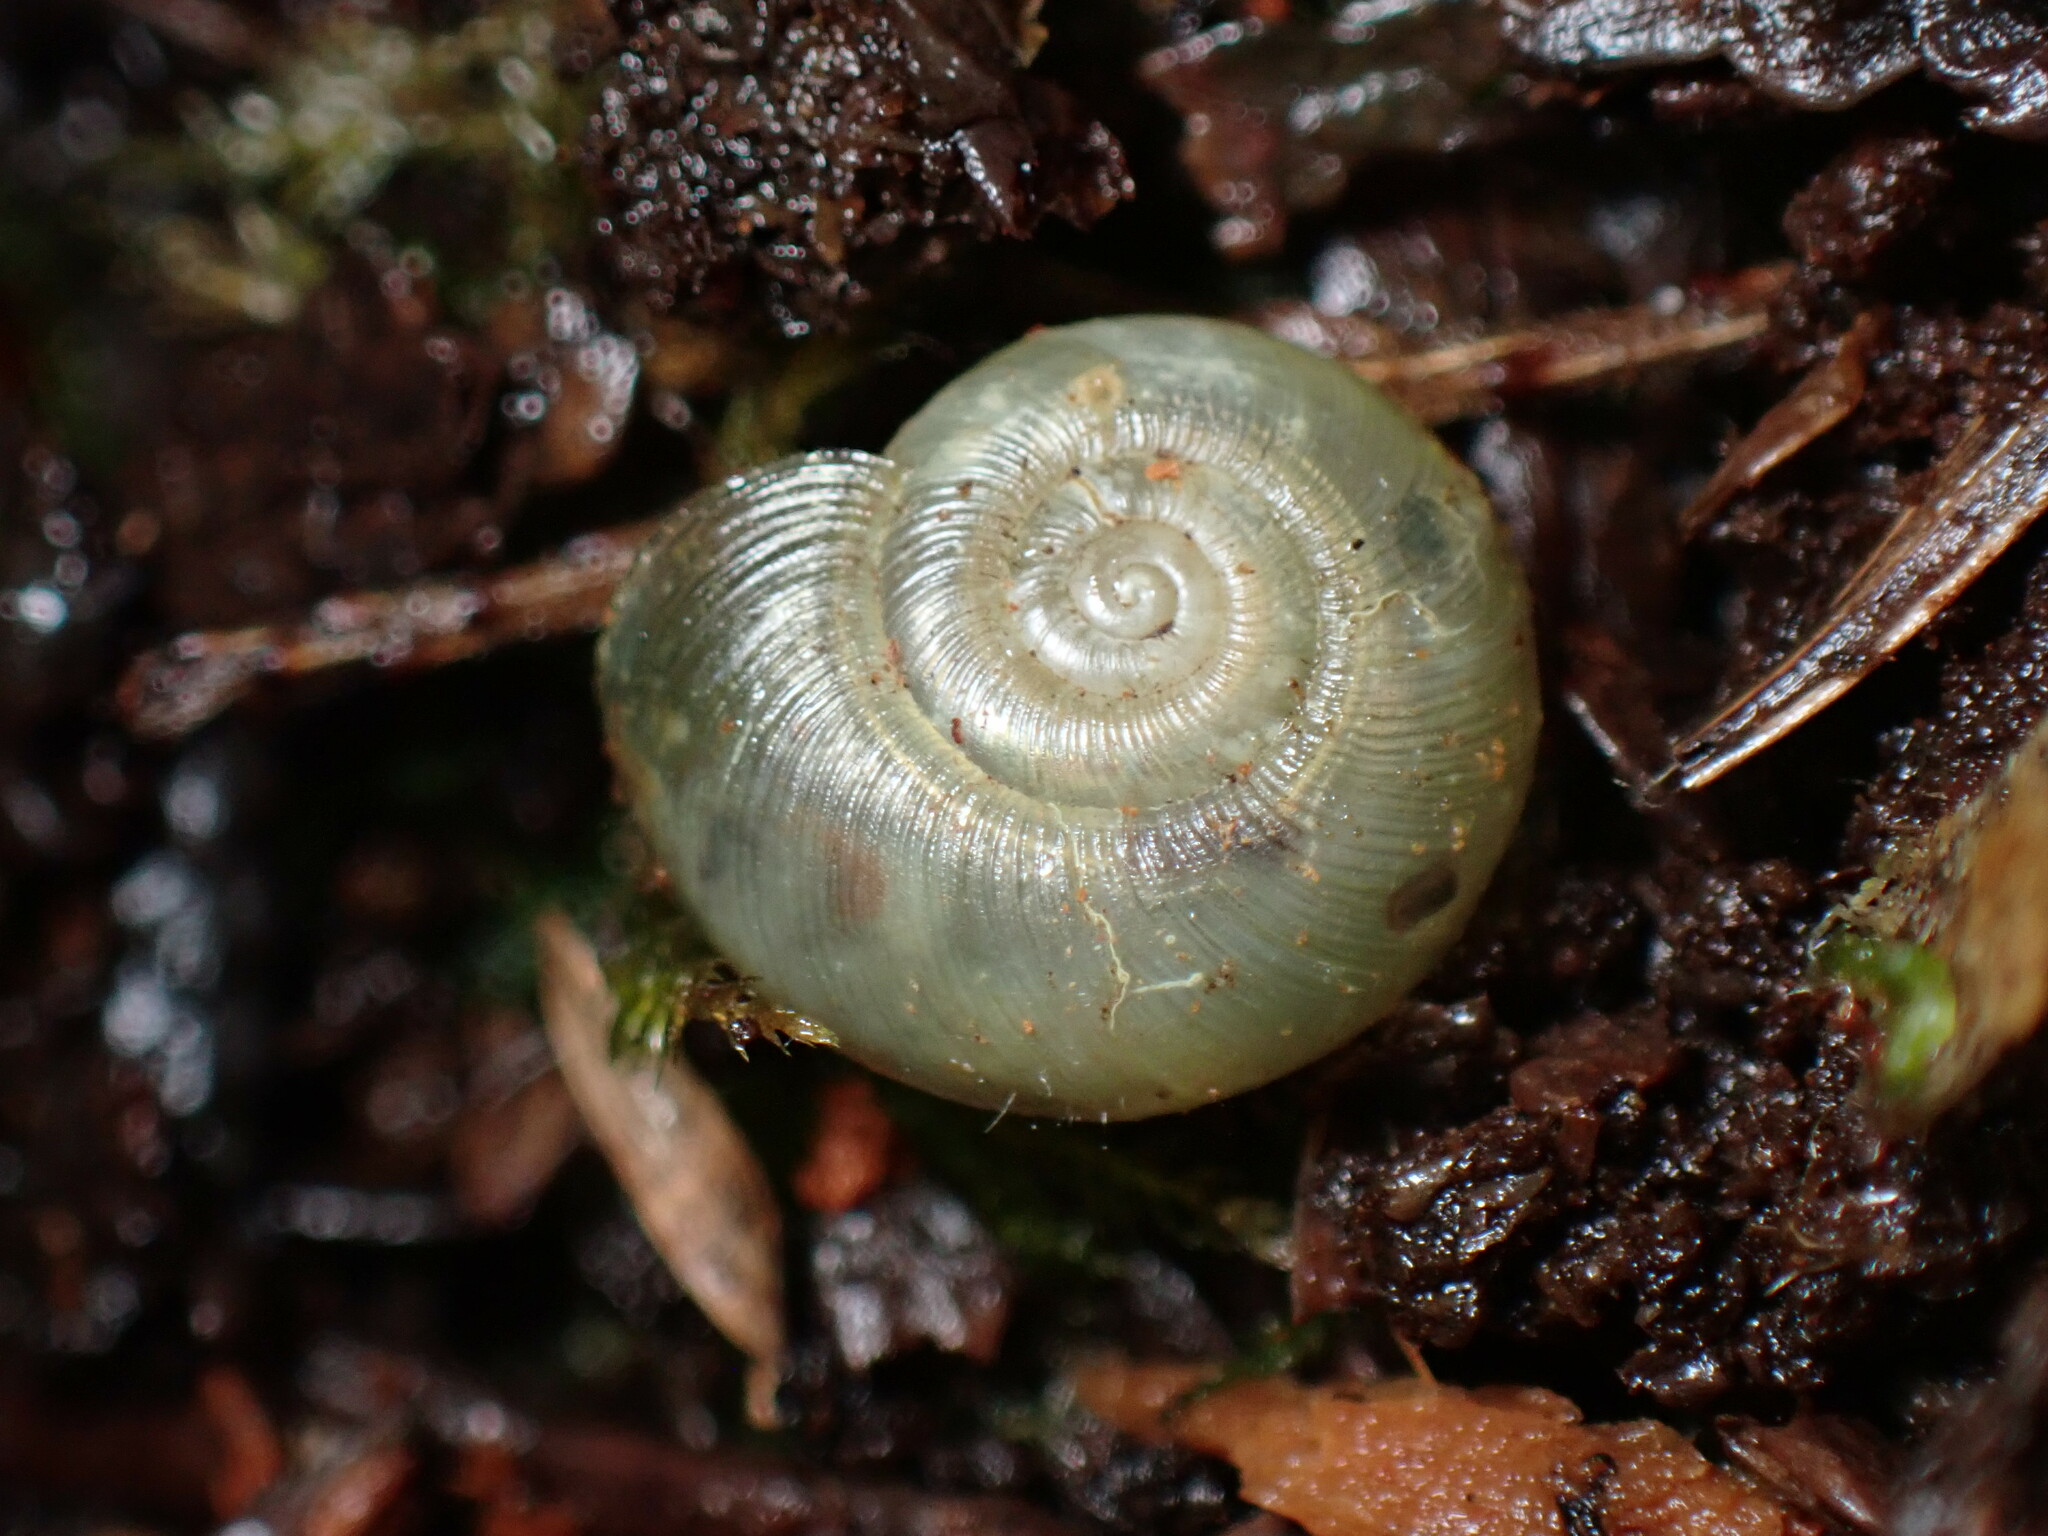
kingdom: Animalia
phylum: Mollusca
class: Gastropoda
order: Stylommatophora
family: Haplotrematidae
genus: Ancotrema
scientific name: Ancotrema sportella
